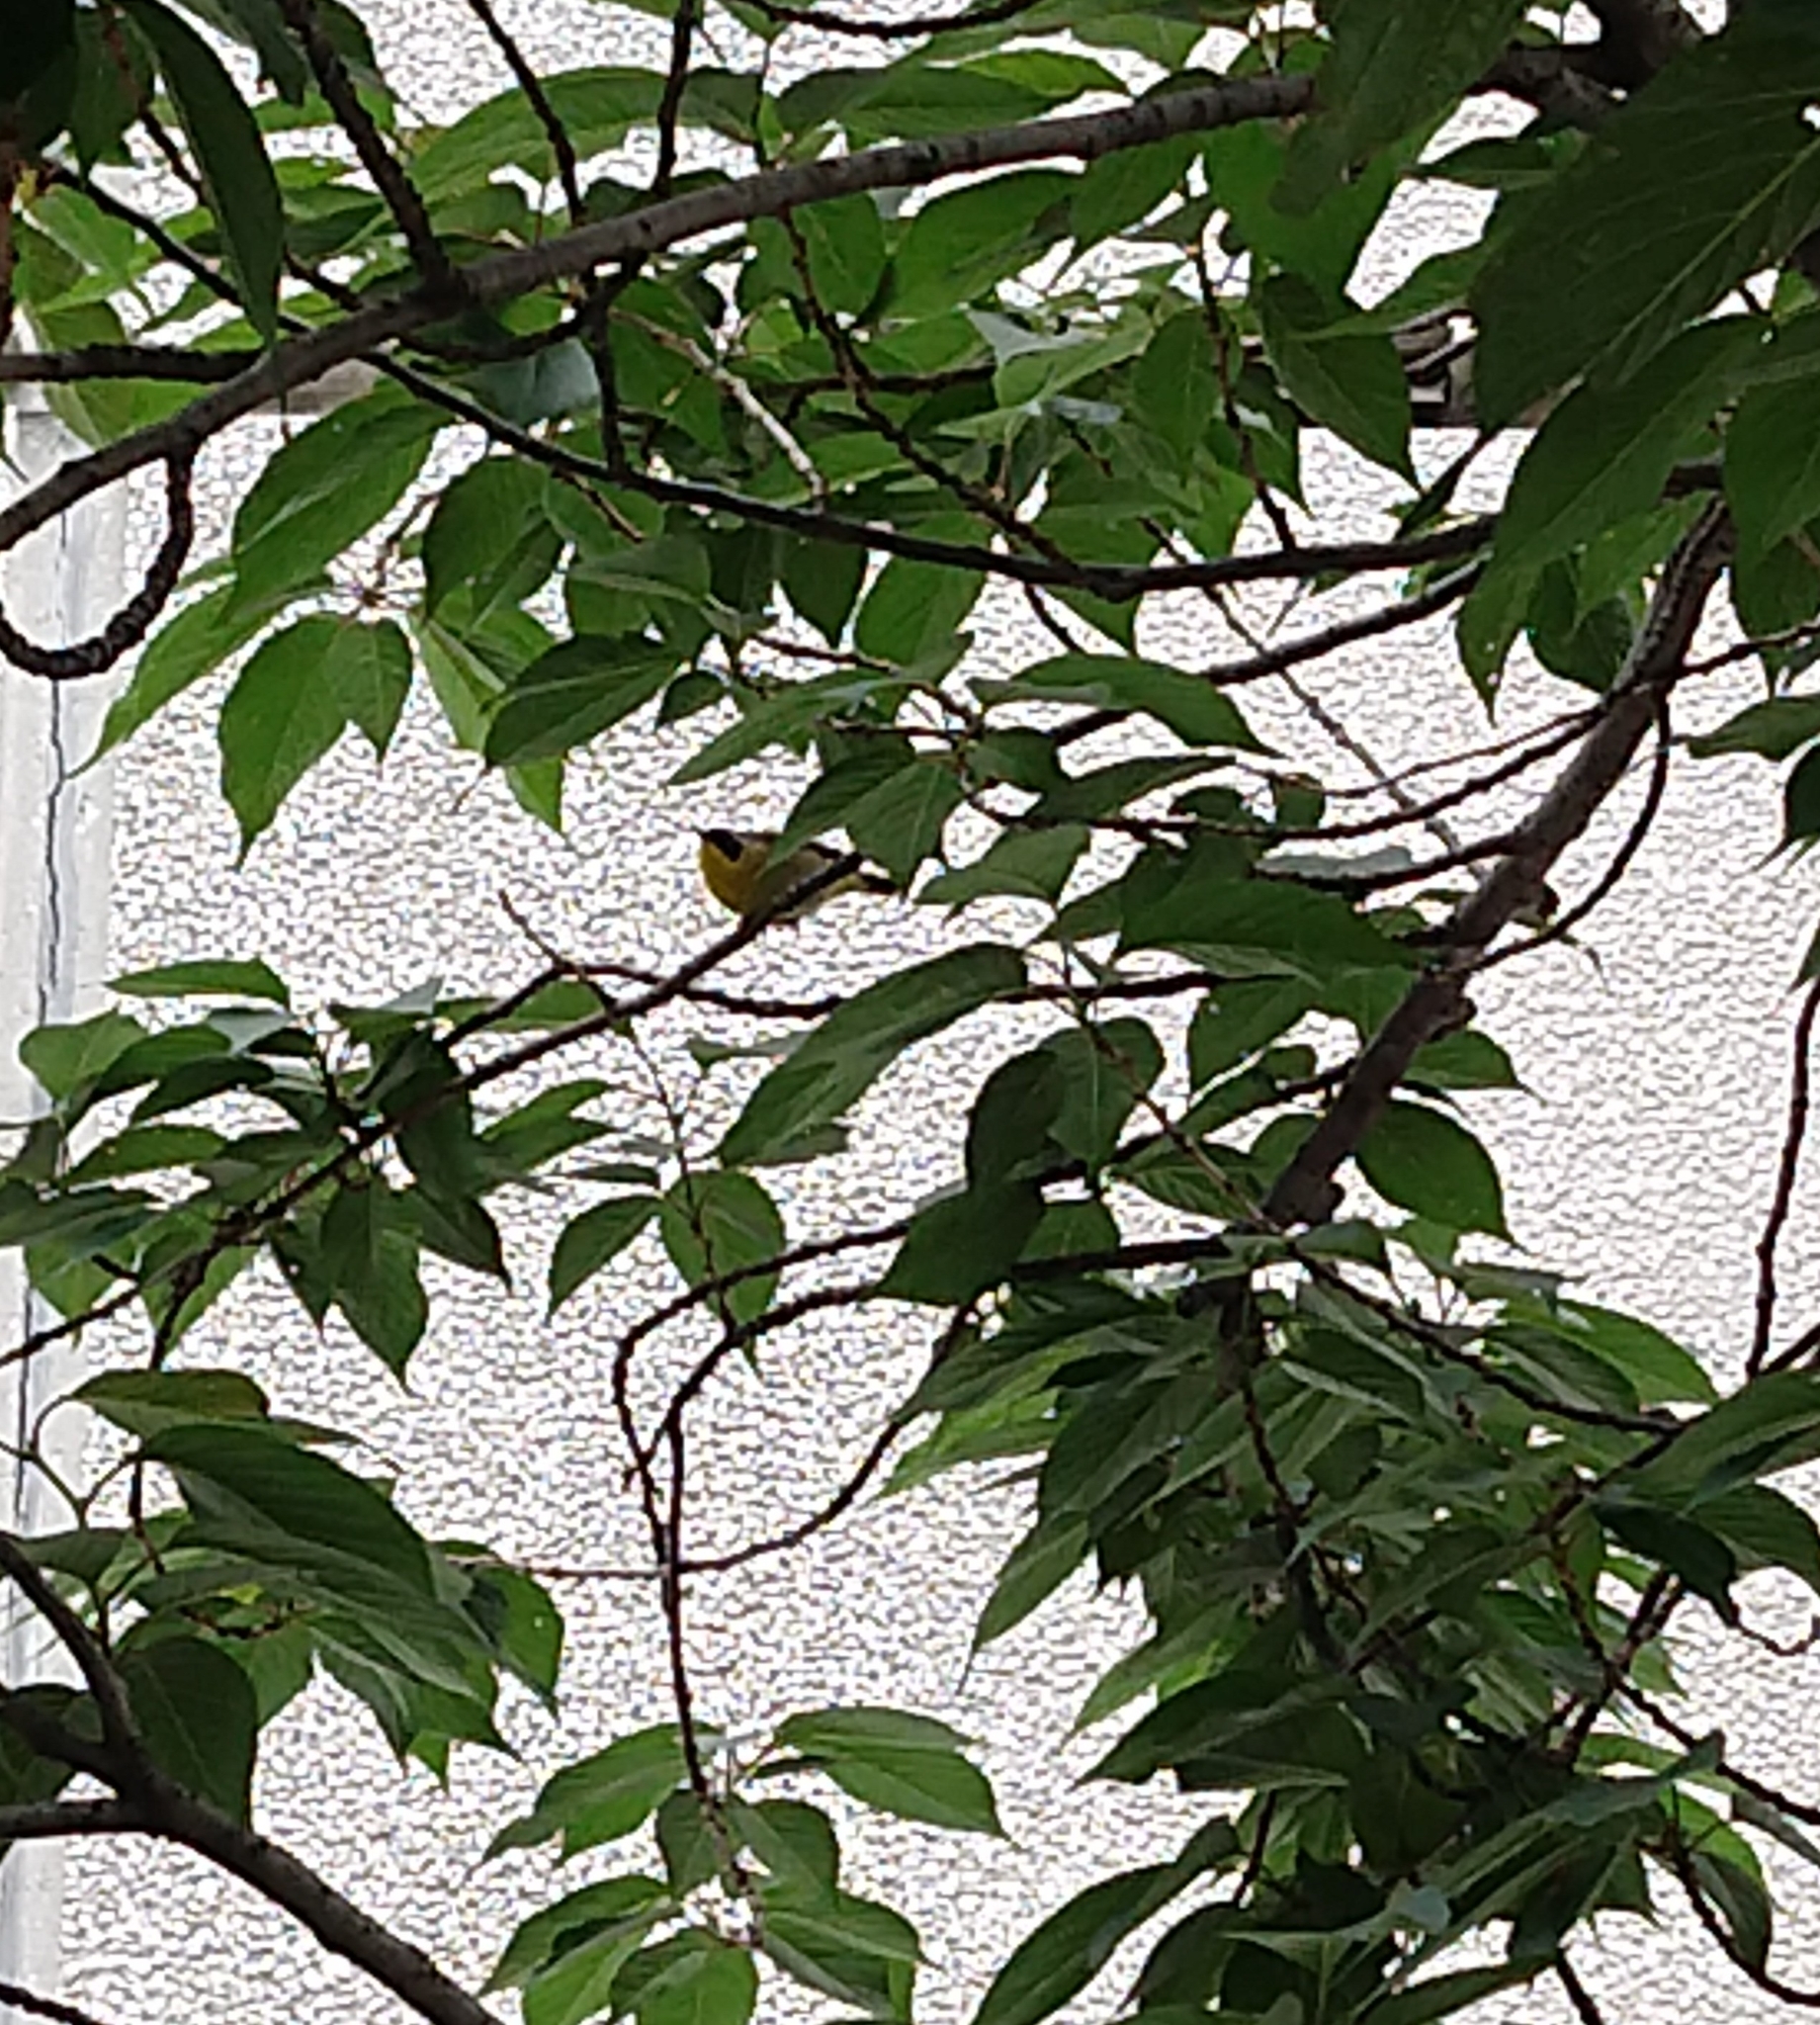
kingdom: Animalia
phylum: Chordata
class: Aves
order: Passeriformes
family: Parulidae
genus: Geothlypis
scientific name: Geothlypis trichas
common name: Common yellowthroat
